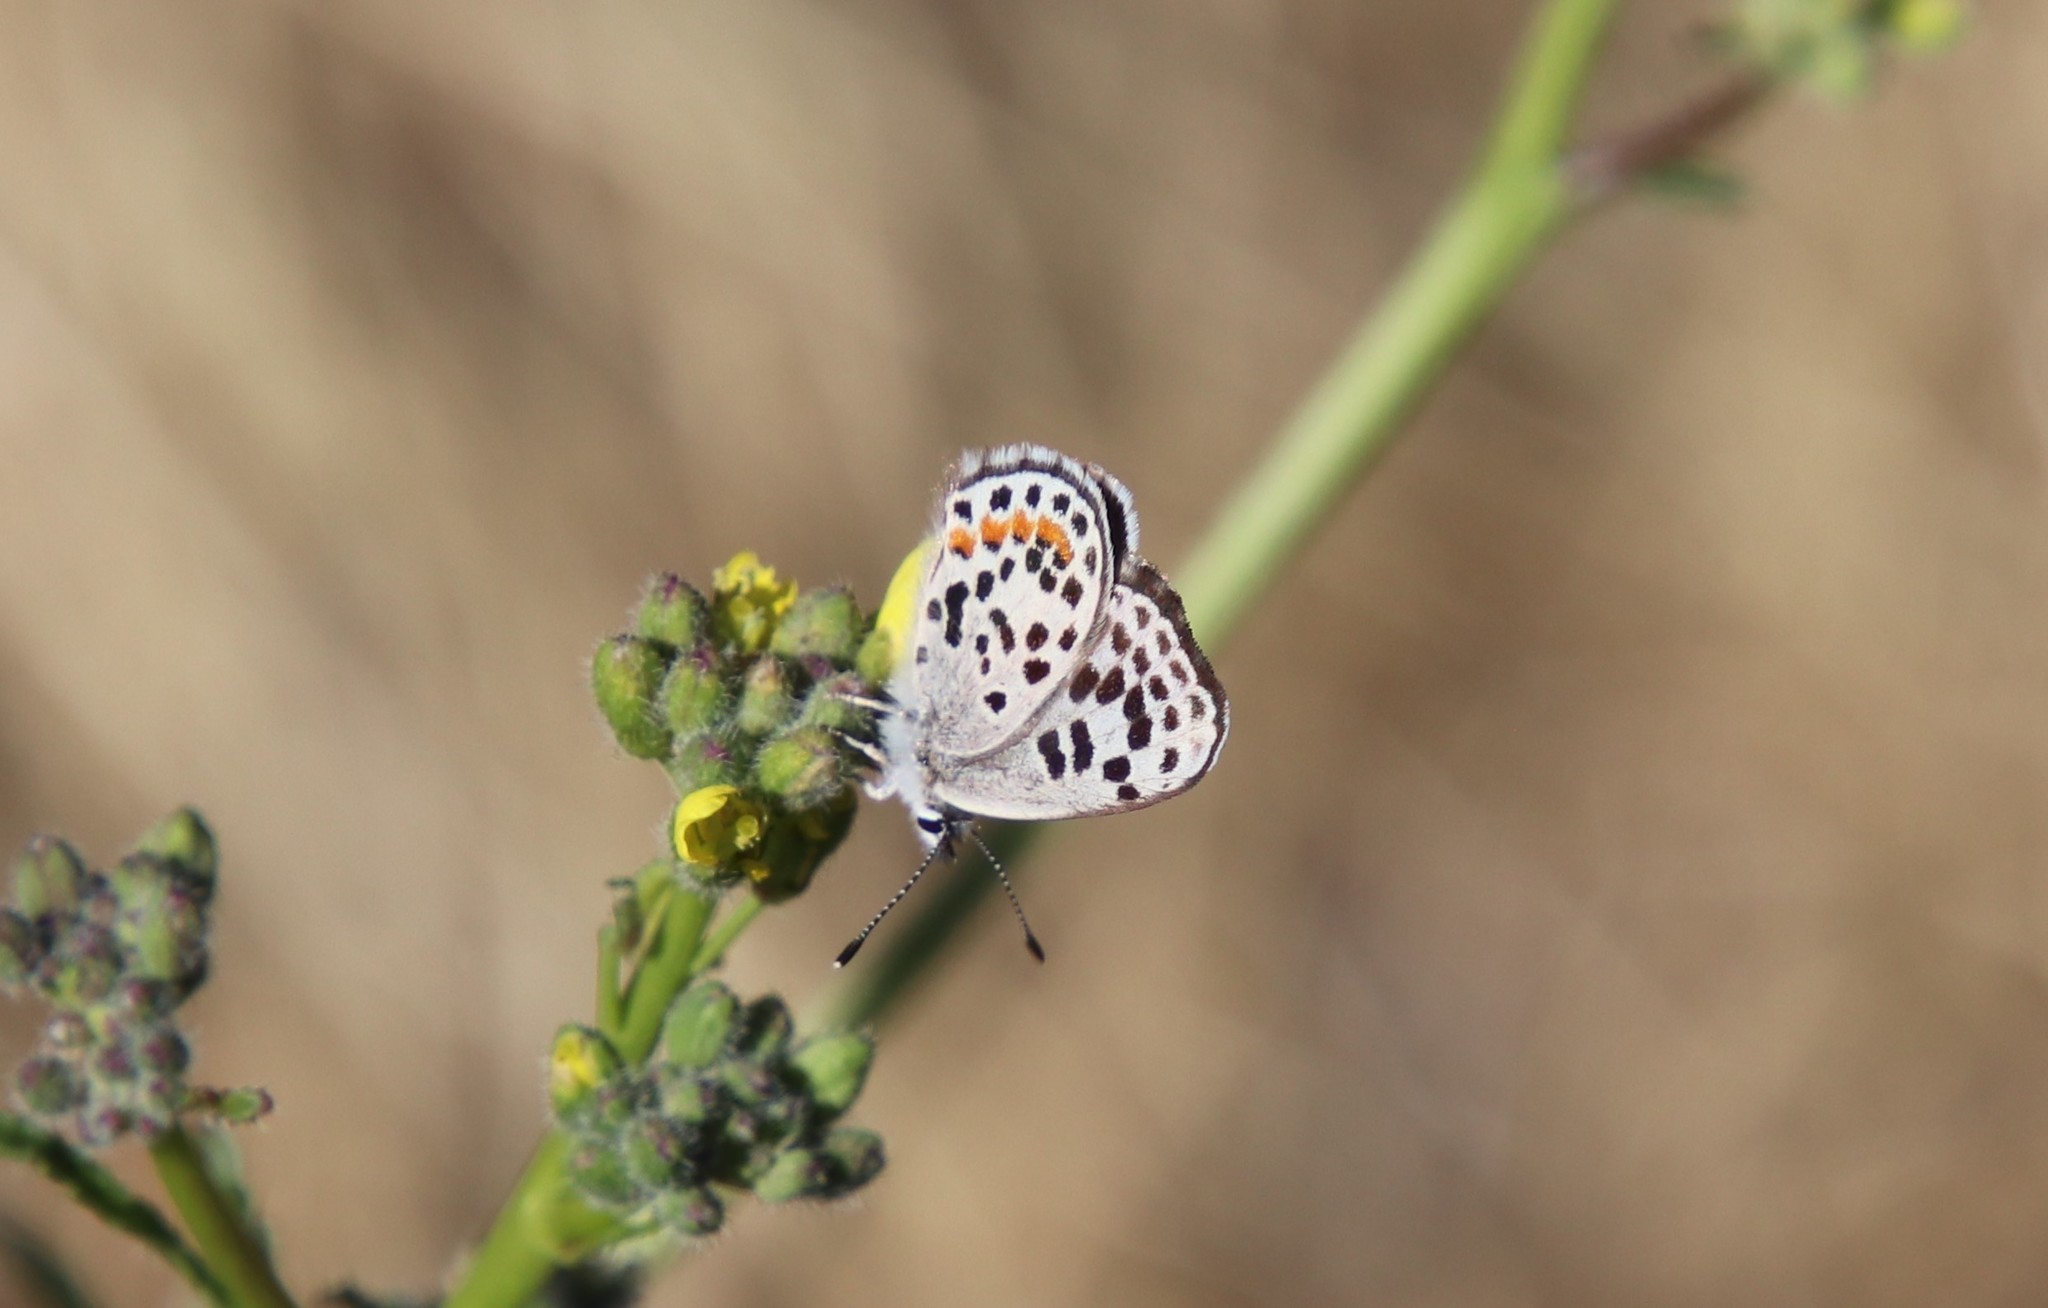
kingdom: Animalia
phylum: Arthropoda
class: Insecta
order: Lepidoptera
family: Lycaenidae
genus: Philotes
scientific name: Philotes bernardino
